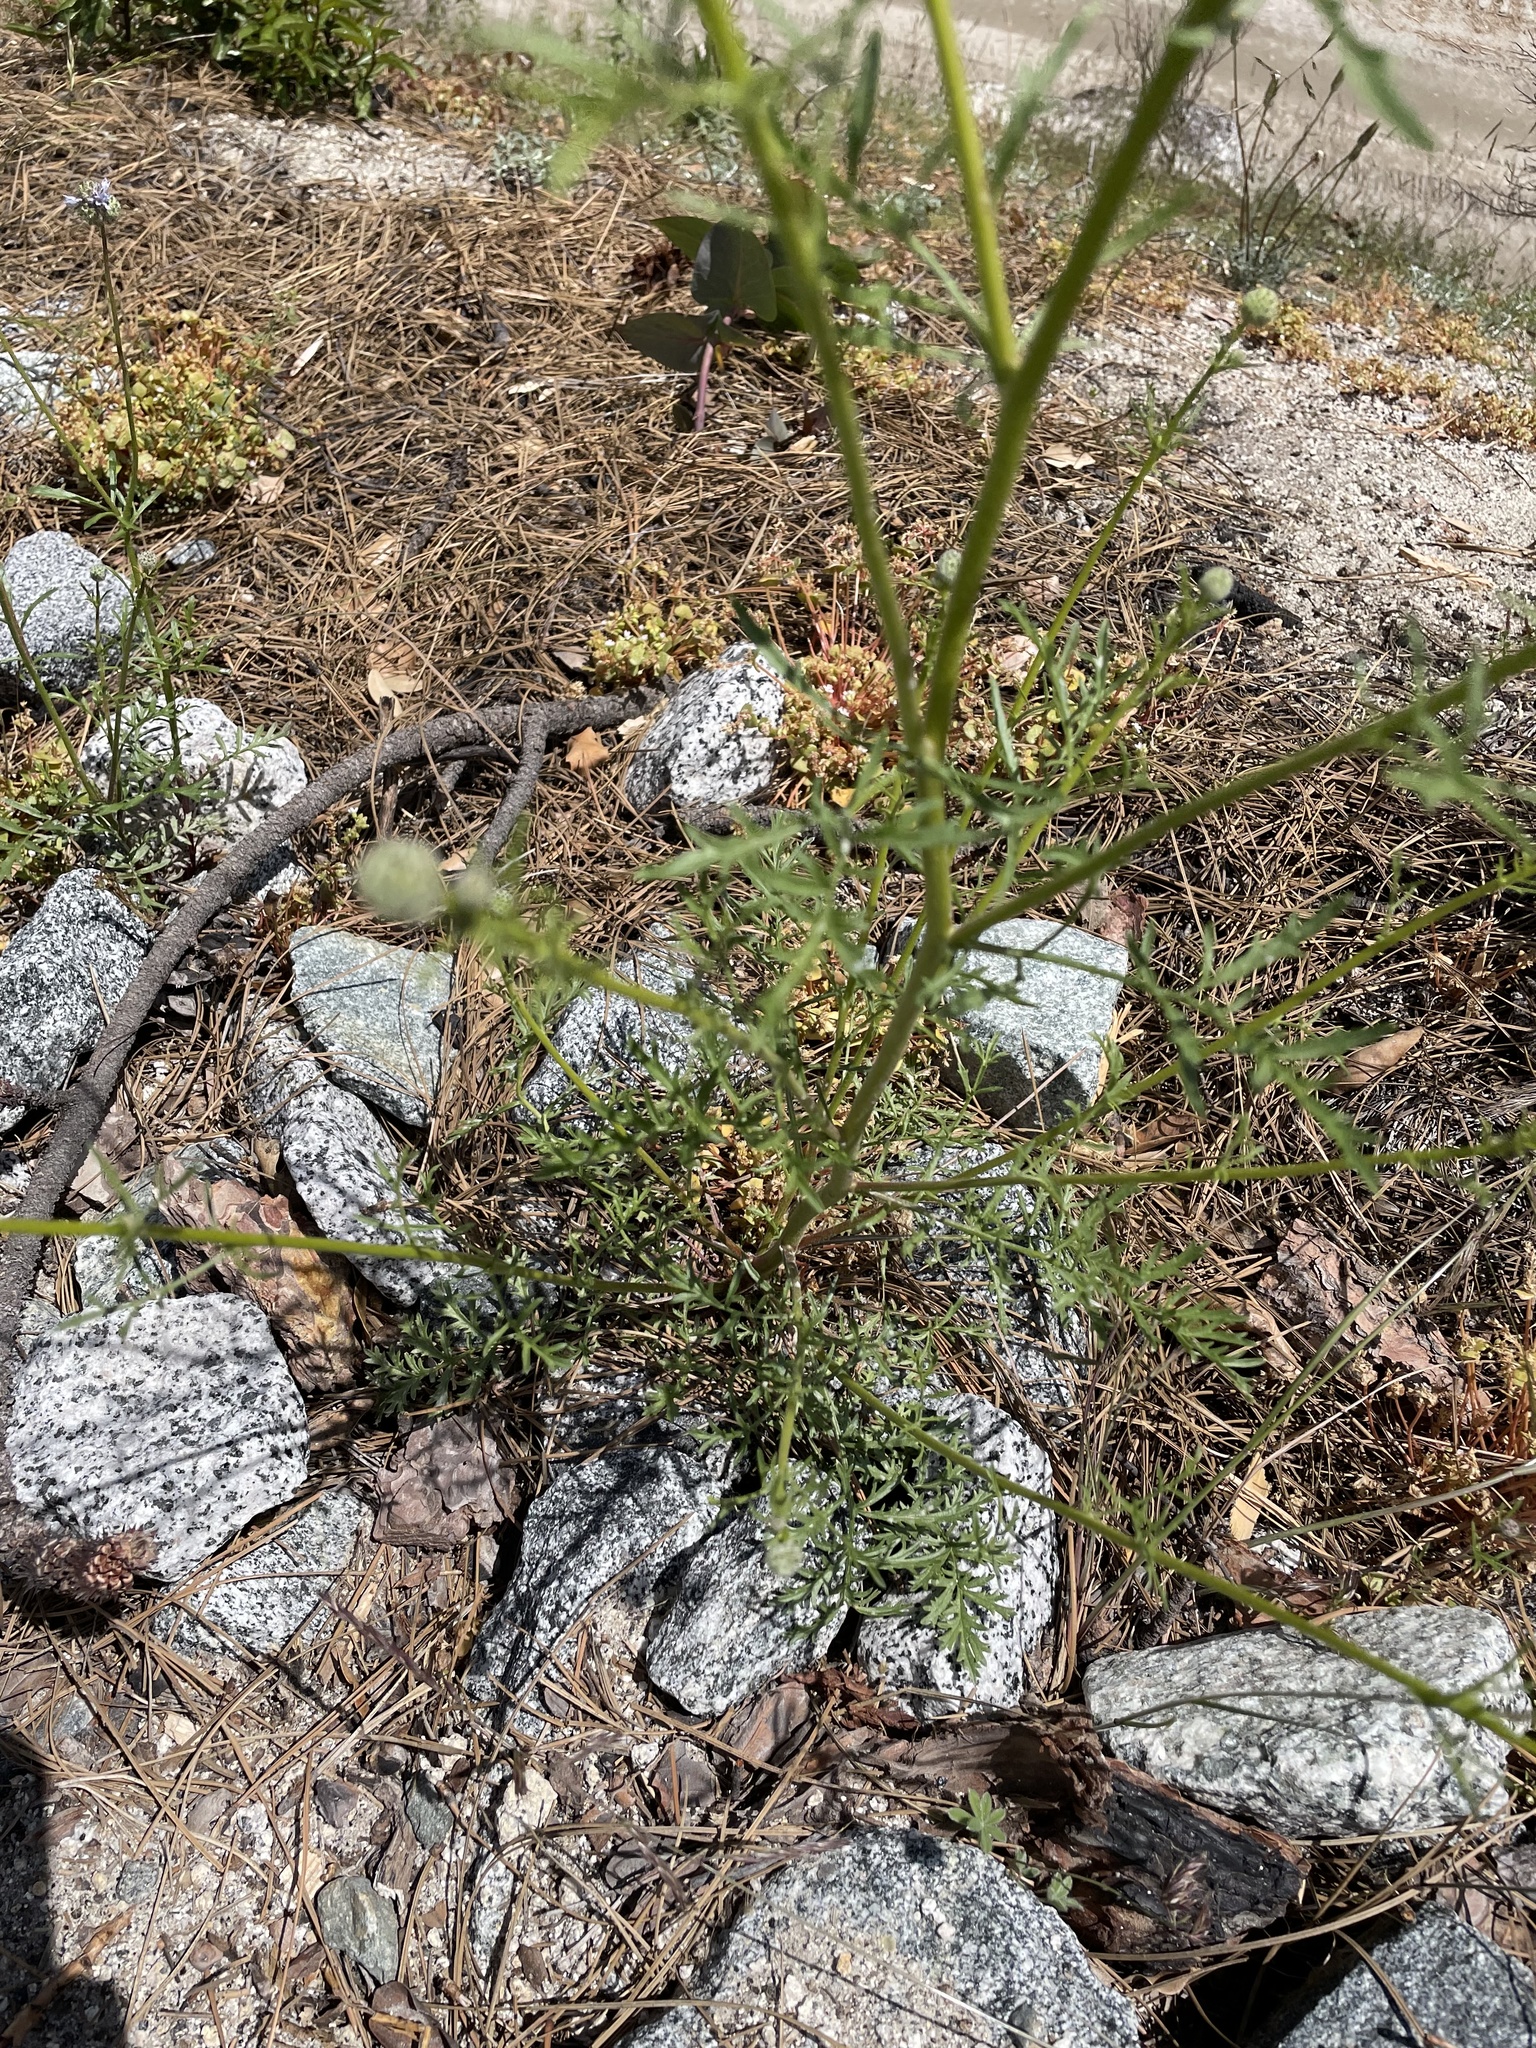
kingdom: Plantae
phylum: Tracheophyta
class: Magnoliopsida
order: Ericales
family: Polemoniaceae
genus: Gilia
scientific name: Gilia capitata
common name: Bluehead gilia
